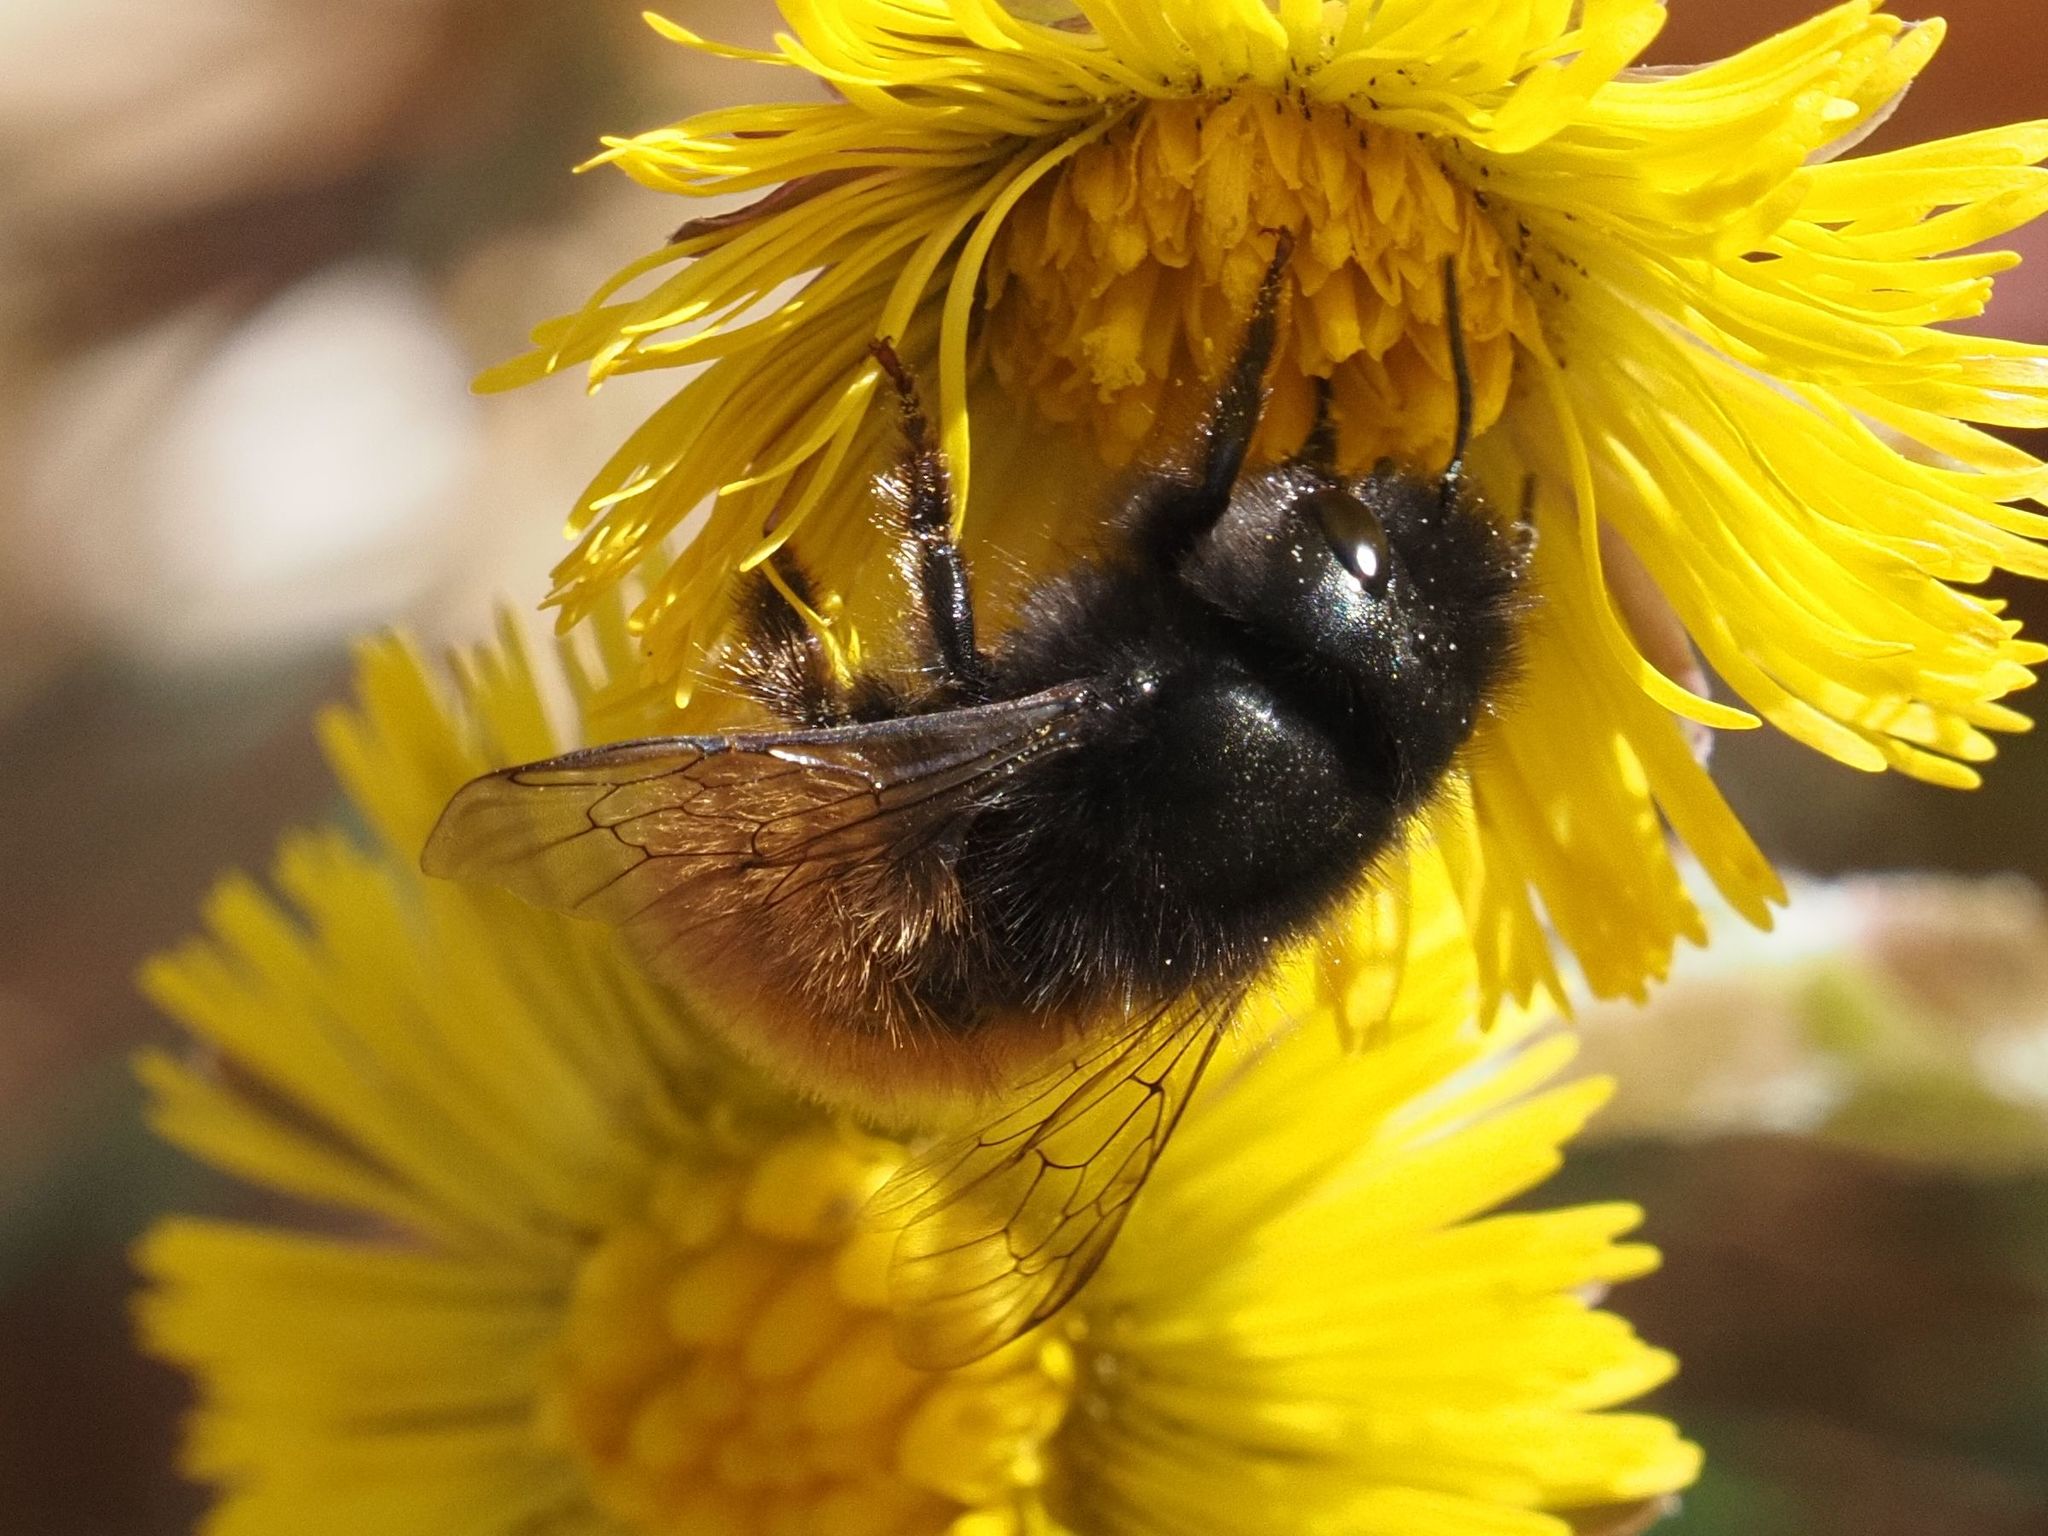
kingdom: Animalia
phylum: Arthropoda
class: Insecta
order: Hymenoptera
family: Megachilidae
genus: Osmia
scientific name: Osmia cornuta
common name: Mason bee
